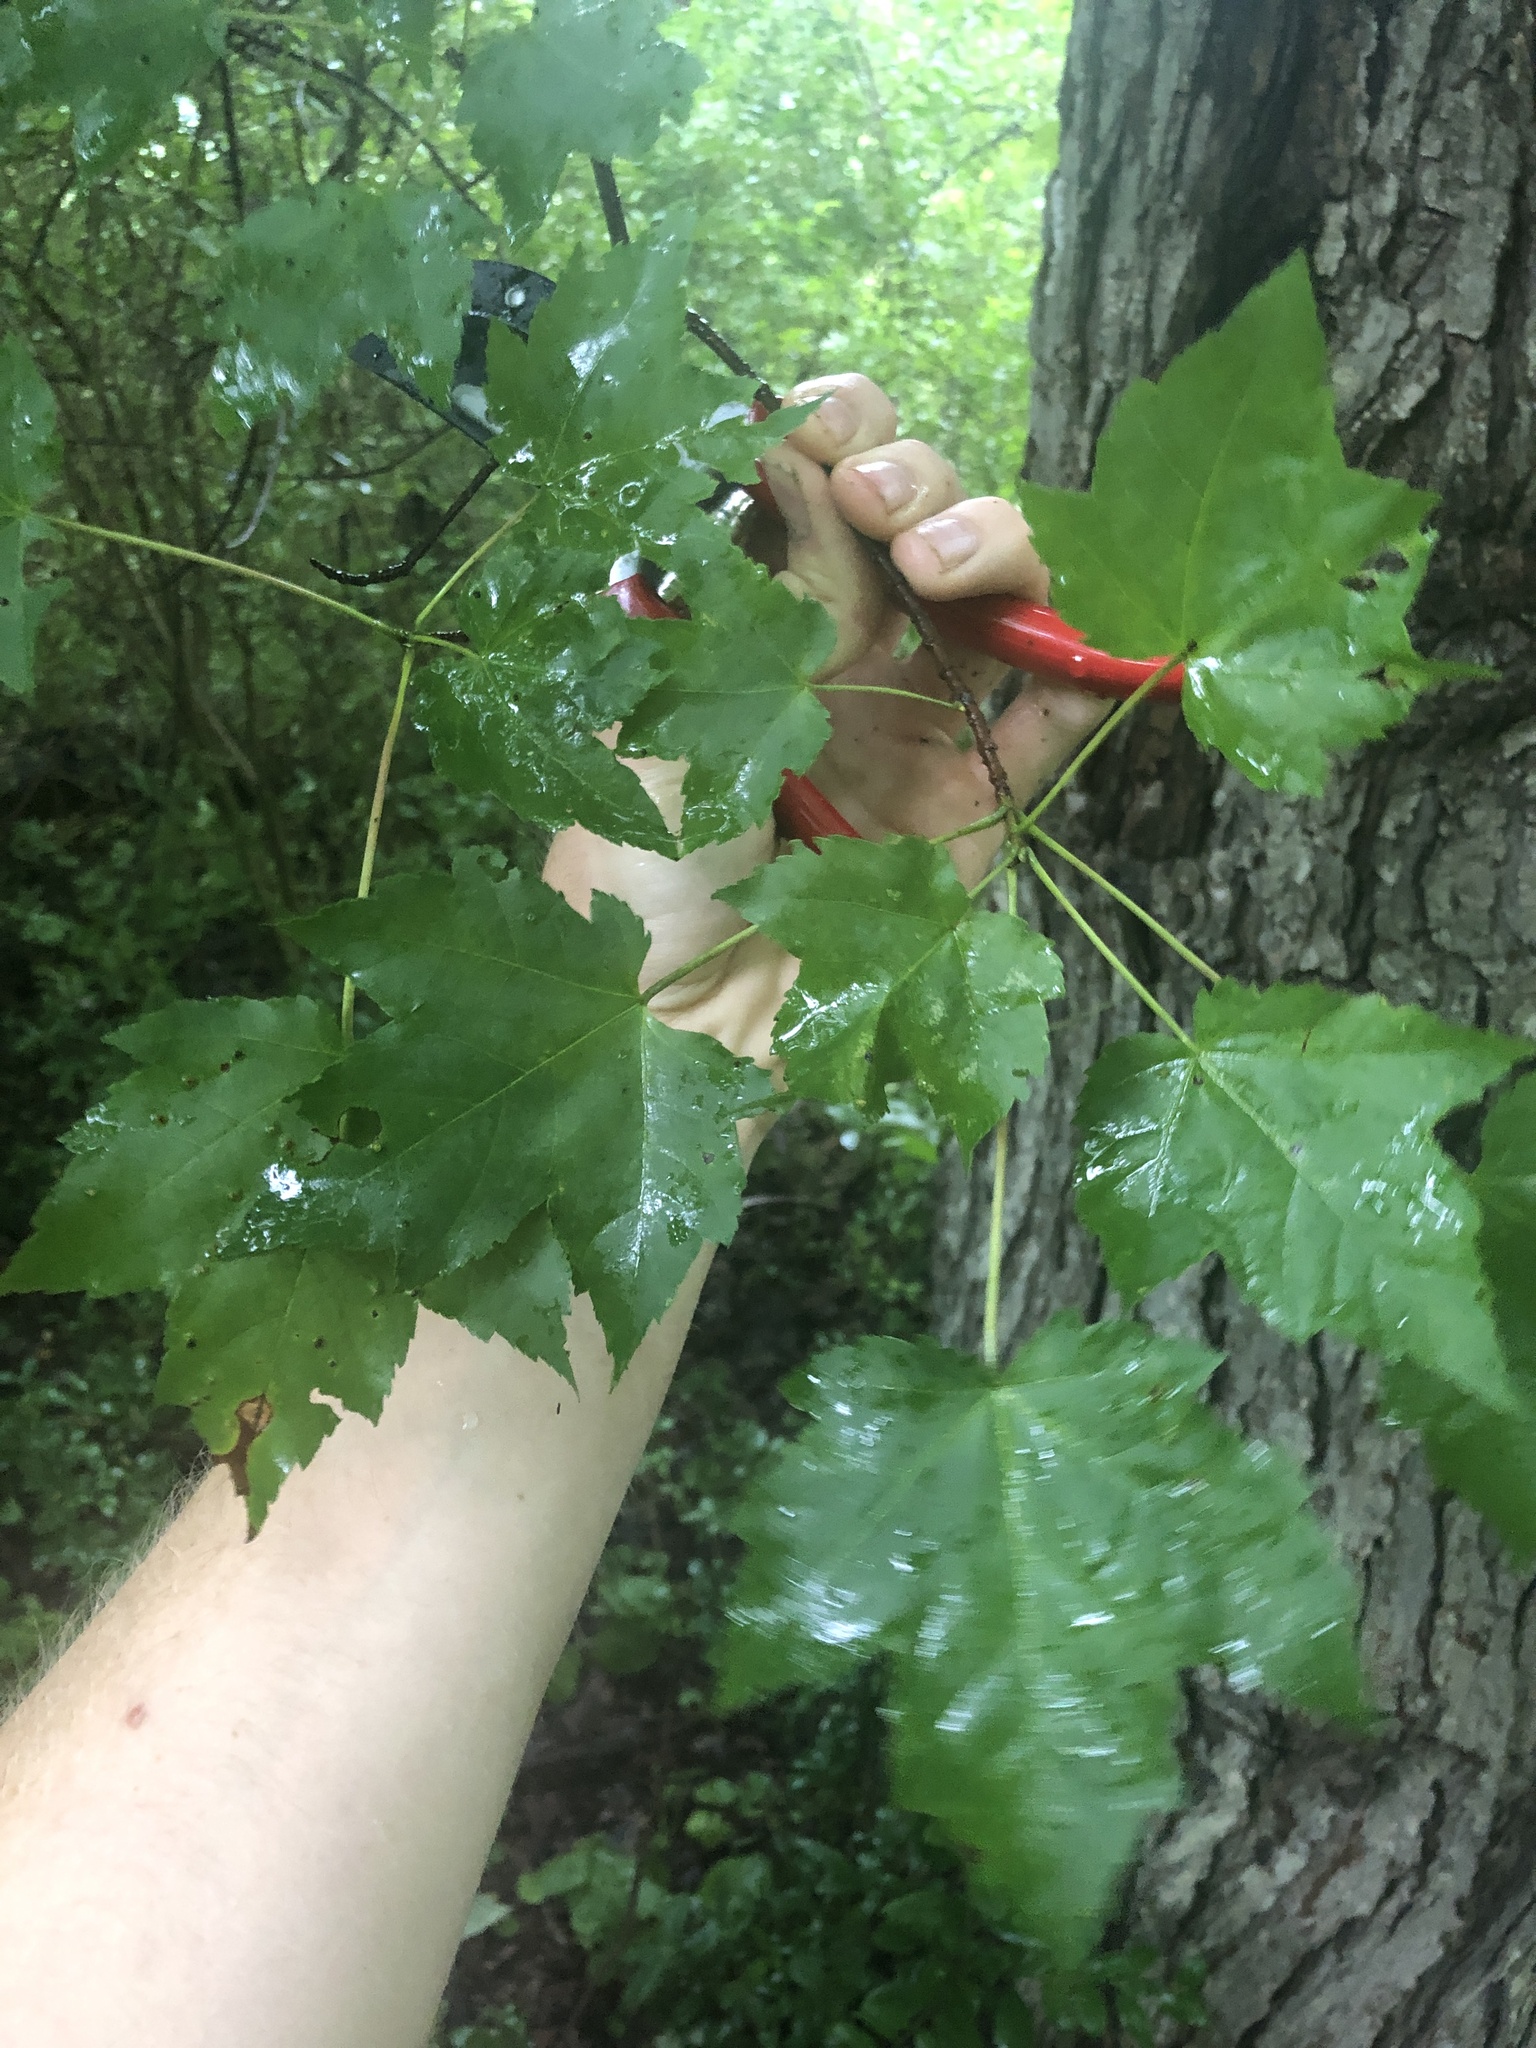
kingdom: Plantae
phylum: Tracheophyta
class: Magnoliopsida
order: Sapindales
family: Sapindaceae
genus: Acer
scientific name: Acer rubrum
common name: Red maple
